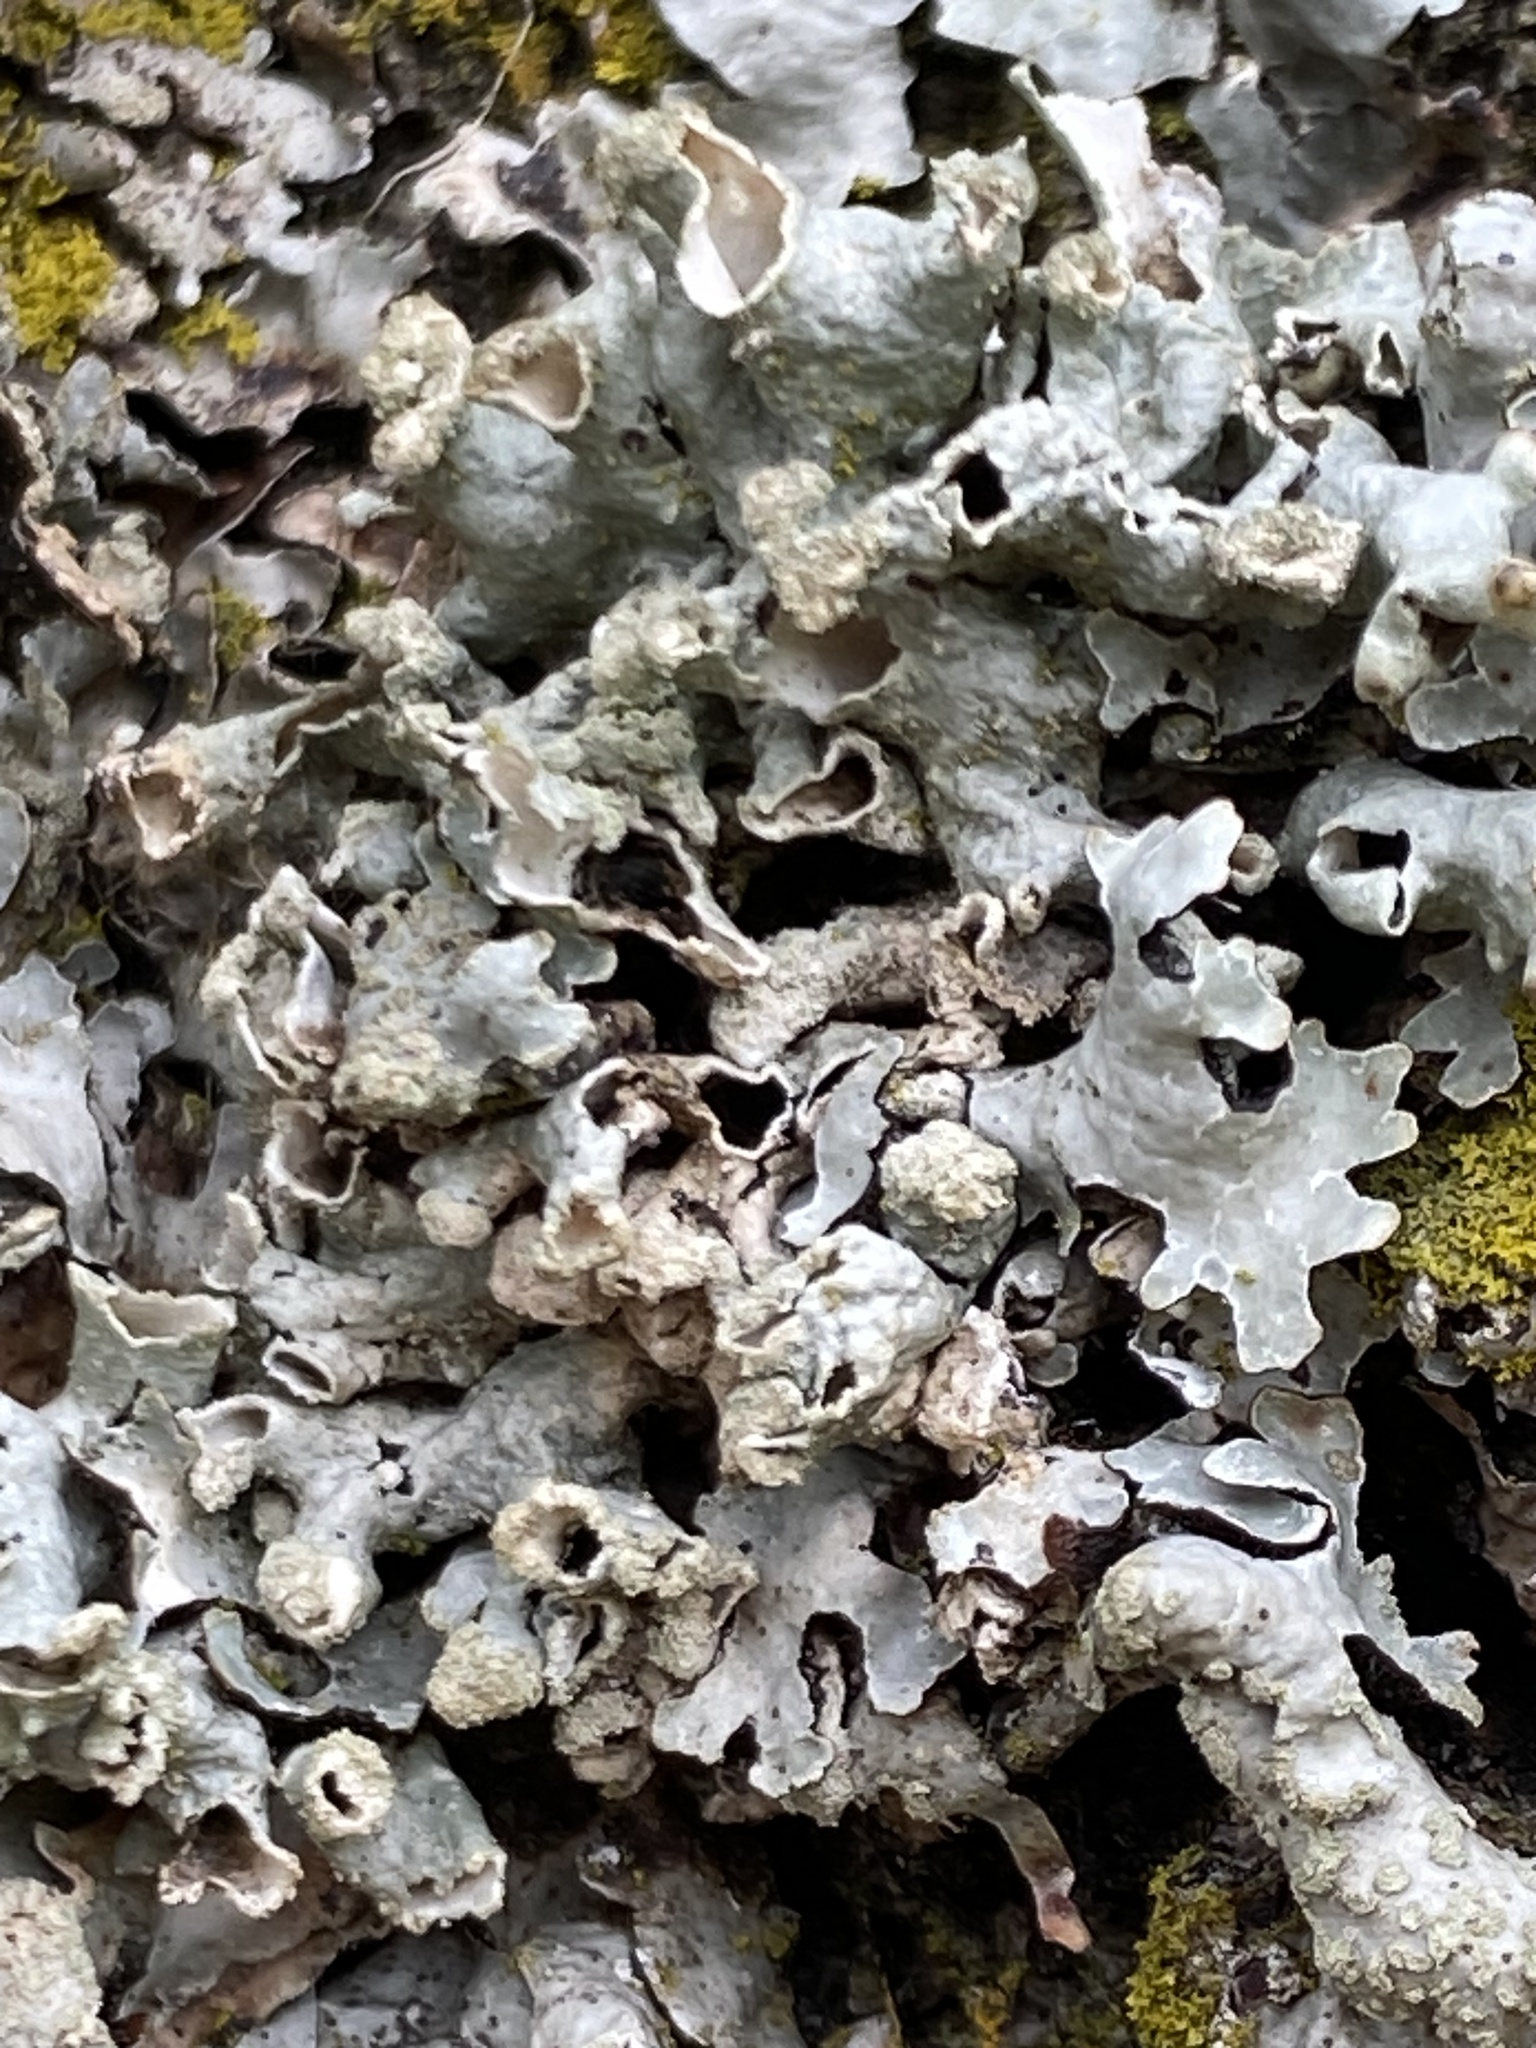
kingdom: Fungi
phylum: Ascomycota
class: Lecanoromycetes
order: Lecanorales
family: Parmeliaceae
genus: Hypogymnia
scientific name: Hypogymnia tubulosa
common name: Powder-headed tube lichen
